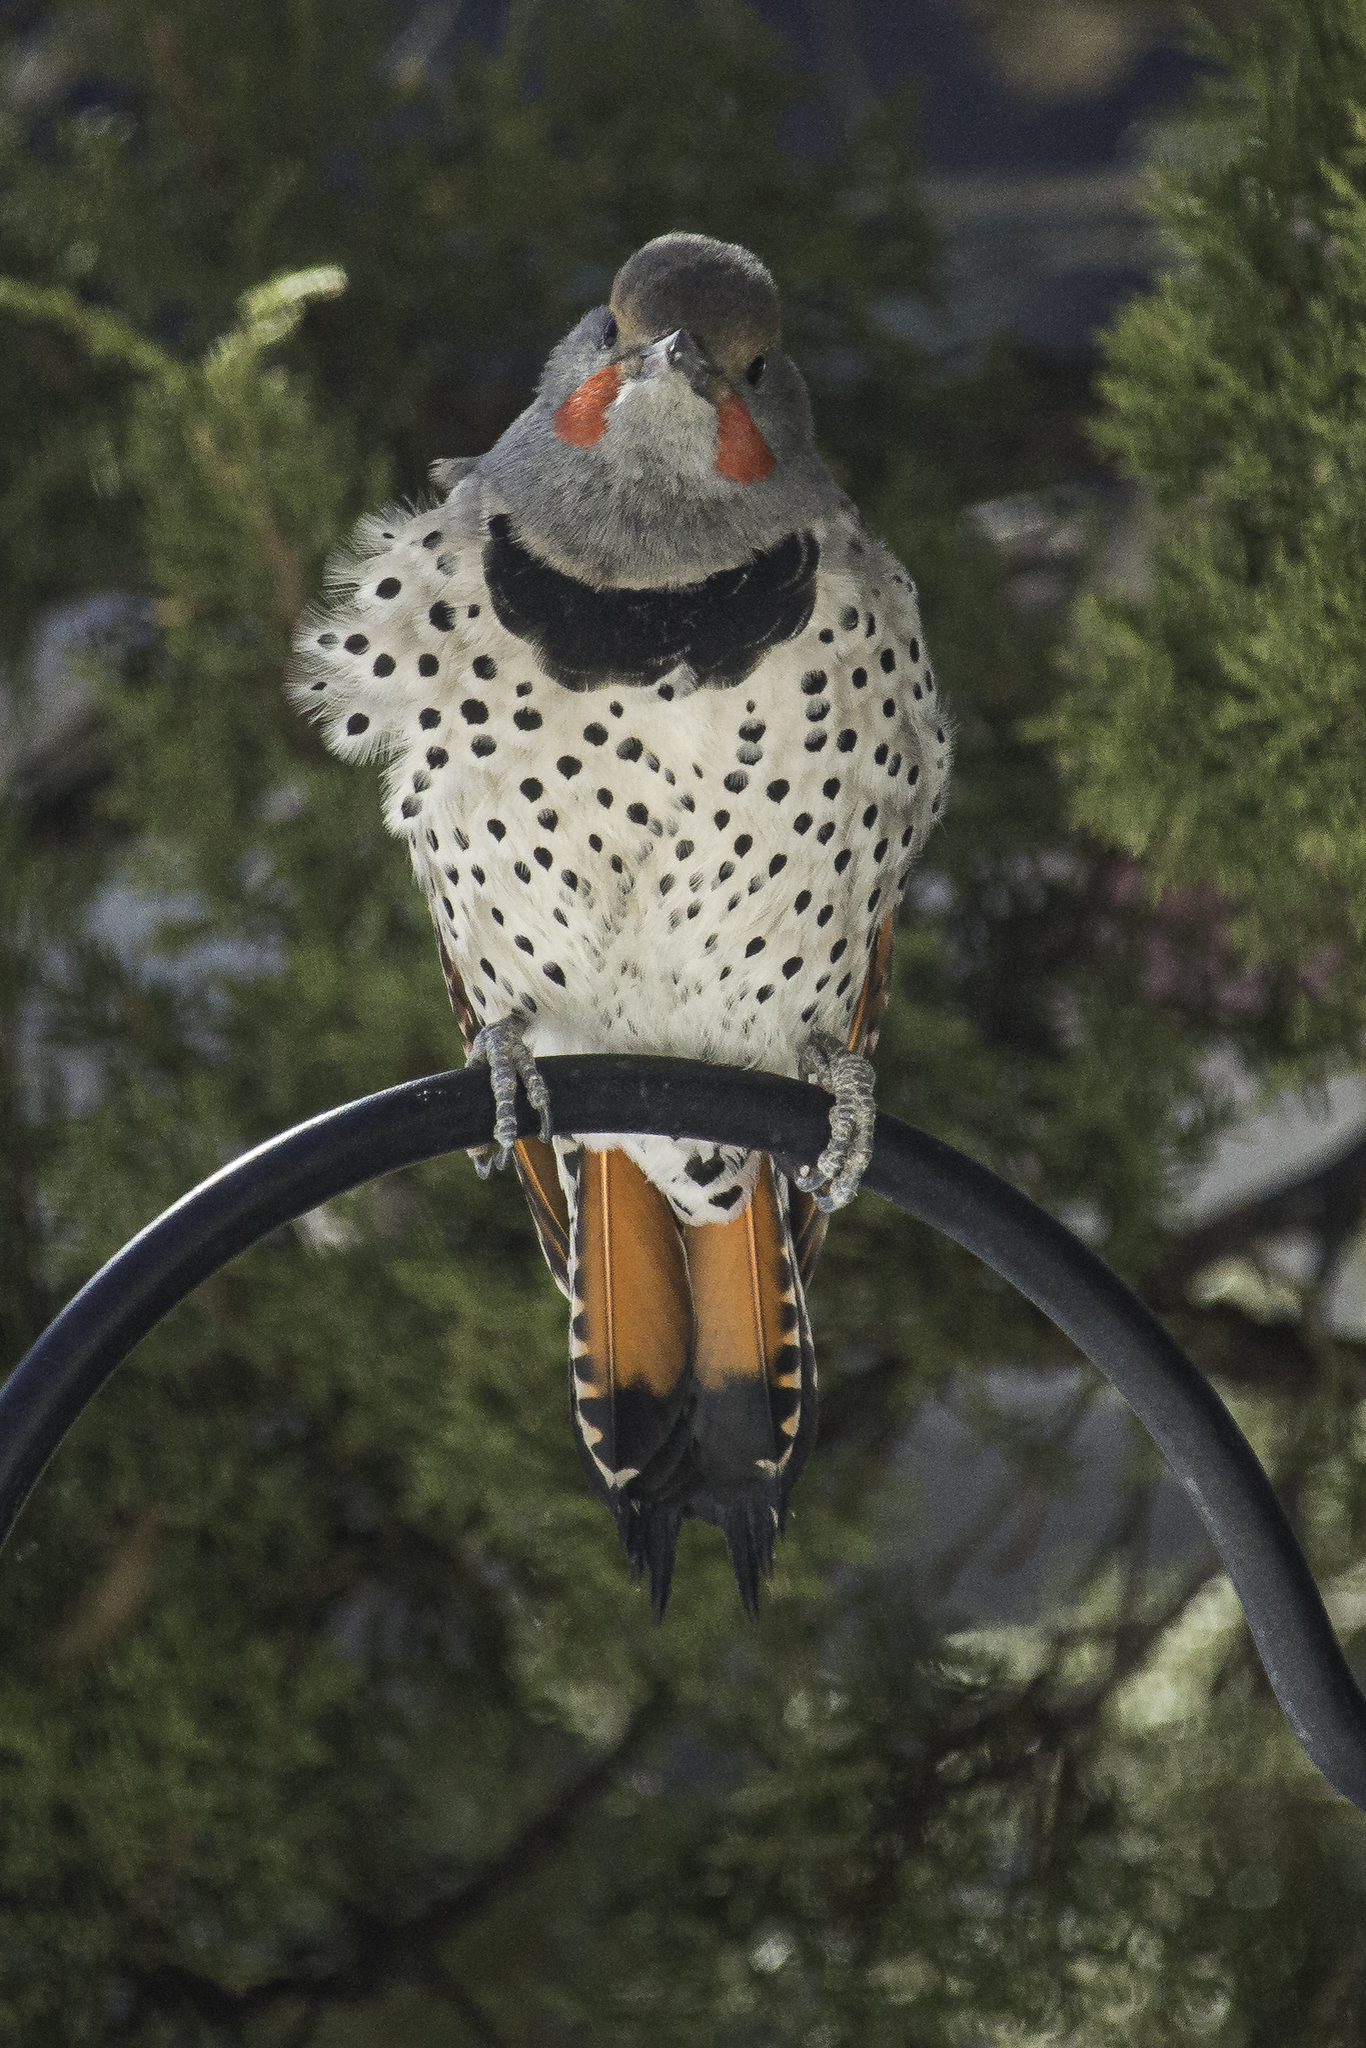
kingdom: Animalia
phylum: Chordata
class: Aves
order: Piciformes
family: Picidae
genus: Colaptes
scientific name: Colaptes auratus
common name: Northern flicker
